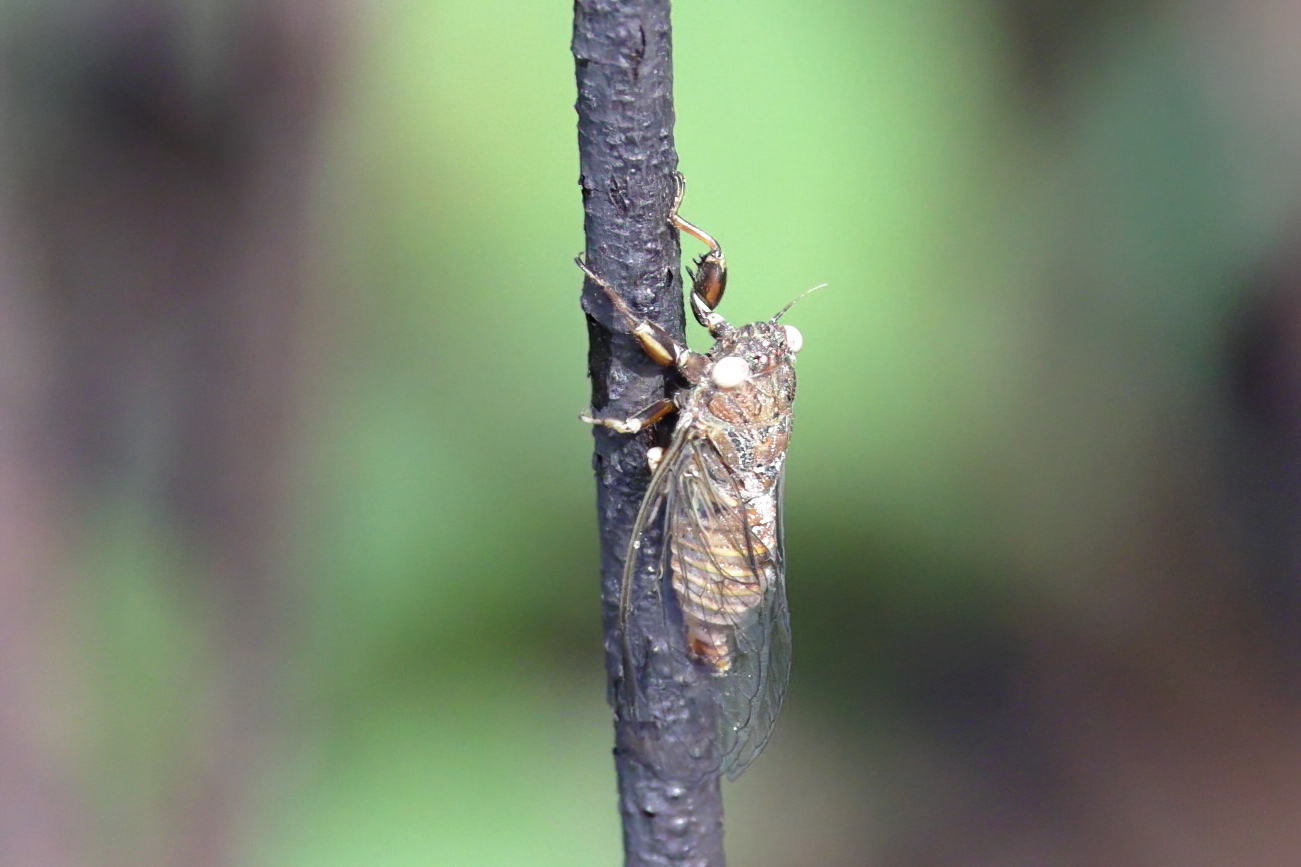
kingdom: Animalia
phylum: Arthropoda
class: Insecta
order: Hemiptera
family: Cicadidae
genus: Cicadettana
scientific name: Cicadettana calliope
